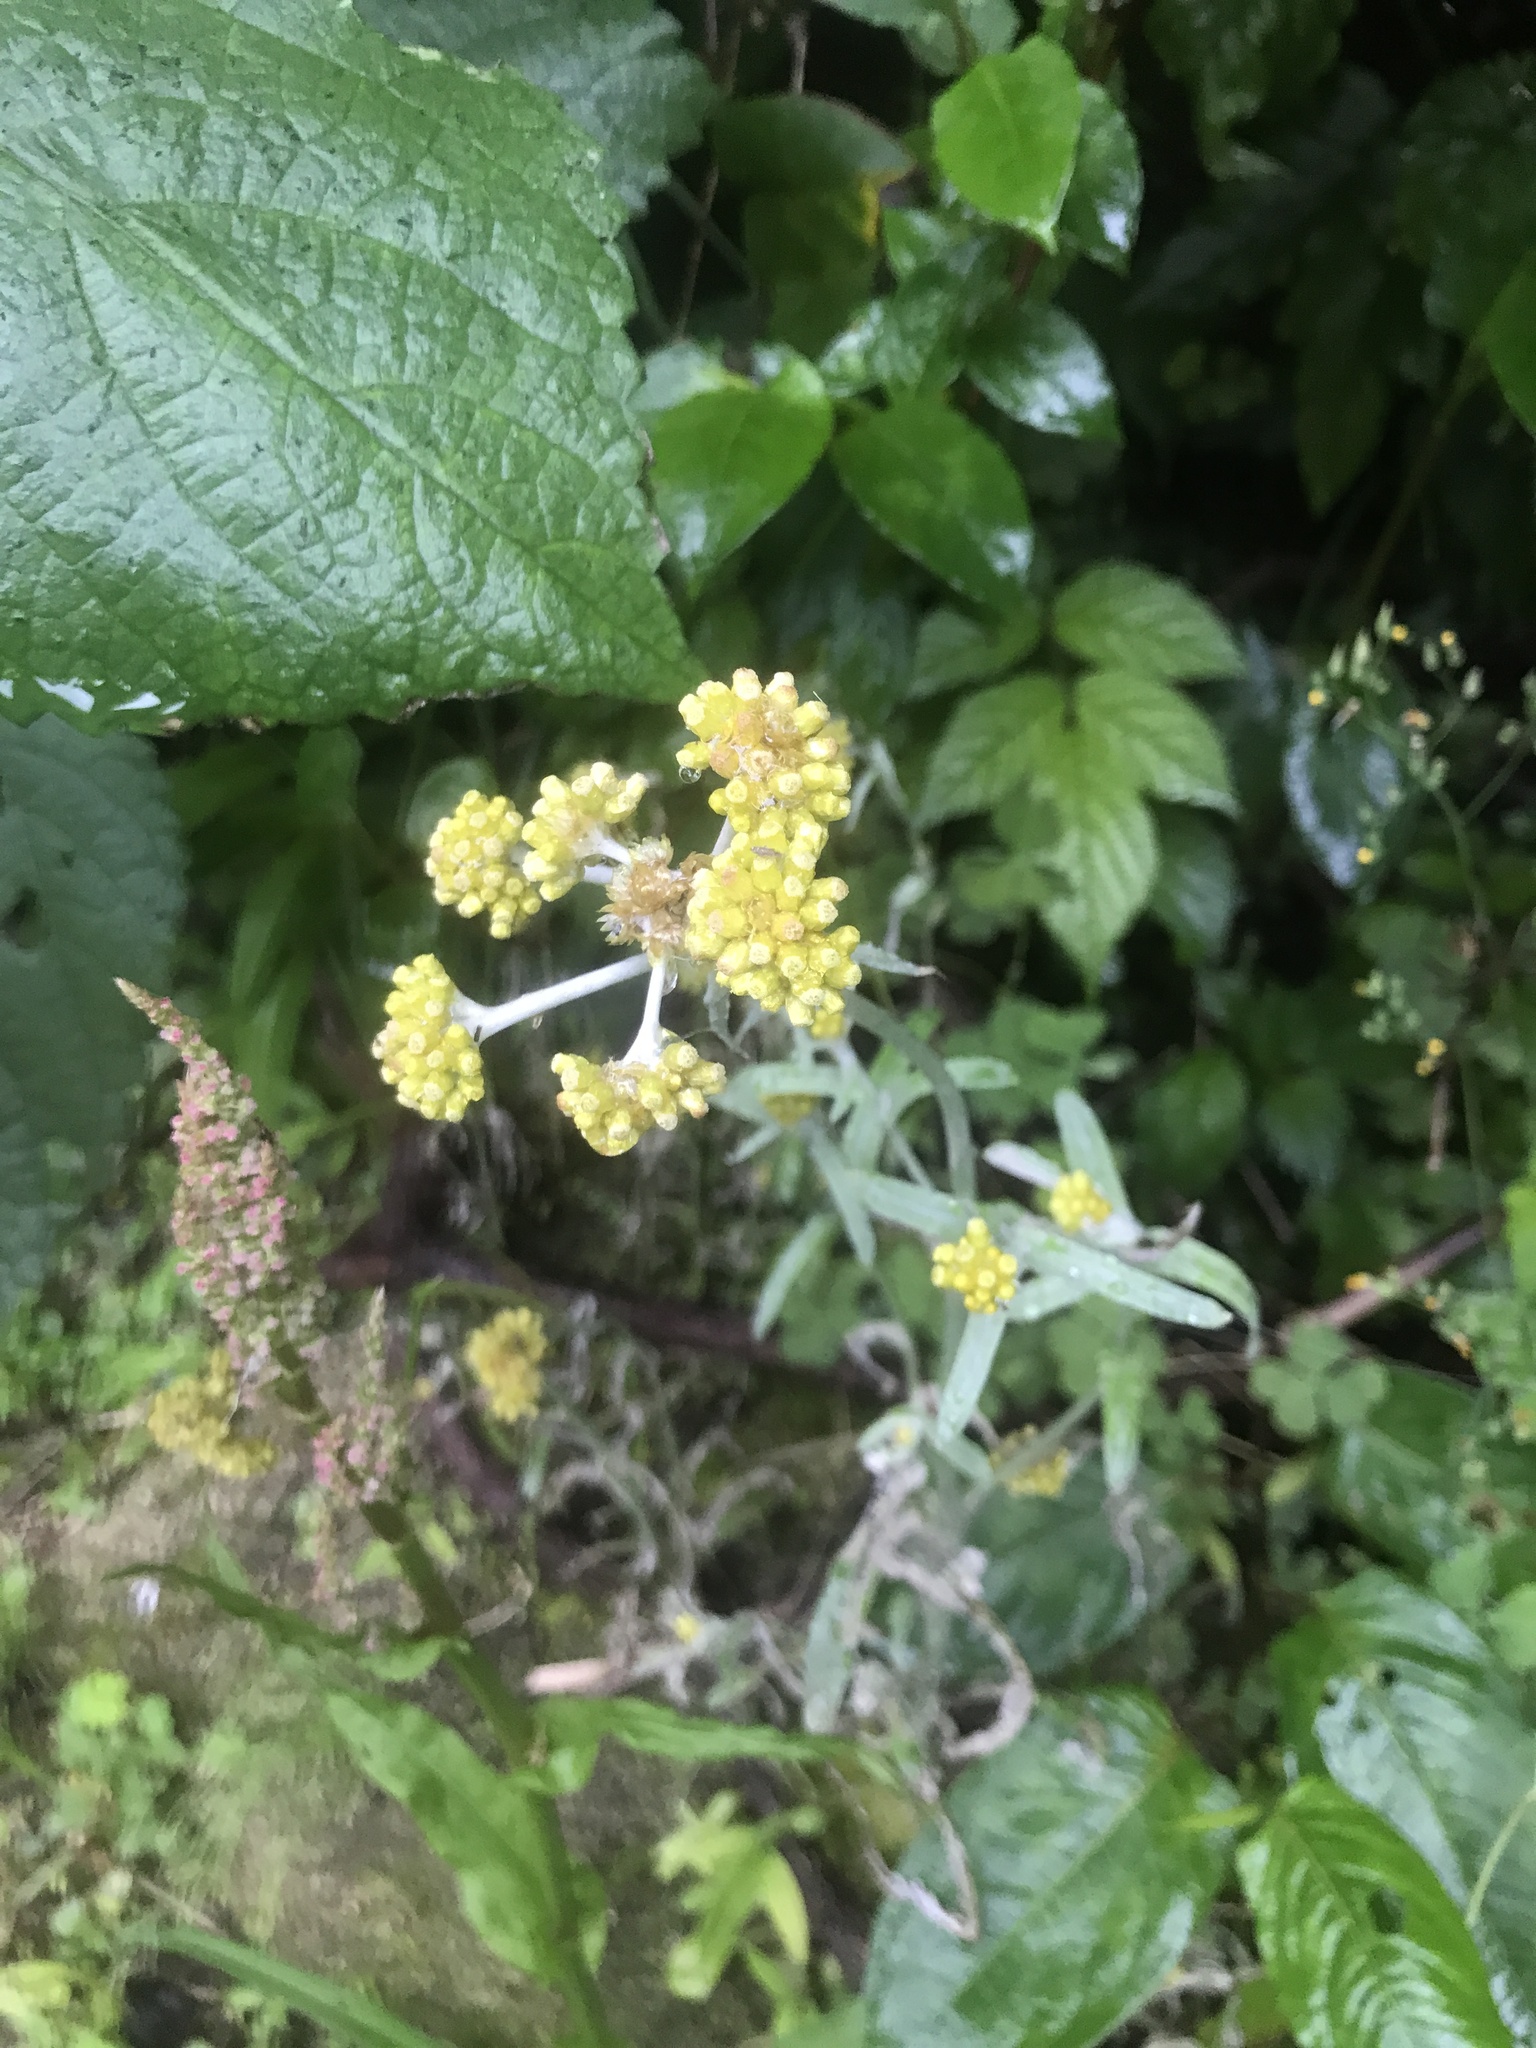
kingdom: Plantae
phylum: Tracheophyta
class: Magnoliopsida
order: Asterales
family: Asteraceae
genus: Pseudognaphalium
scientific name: Pseudognaphalium affine
